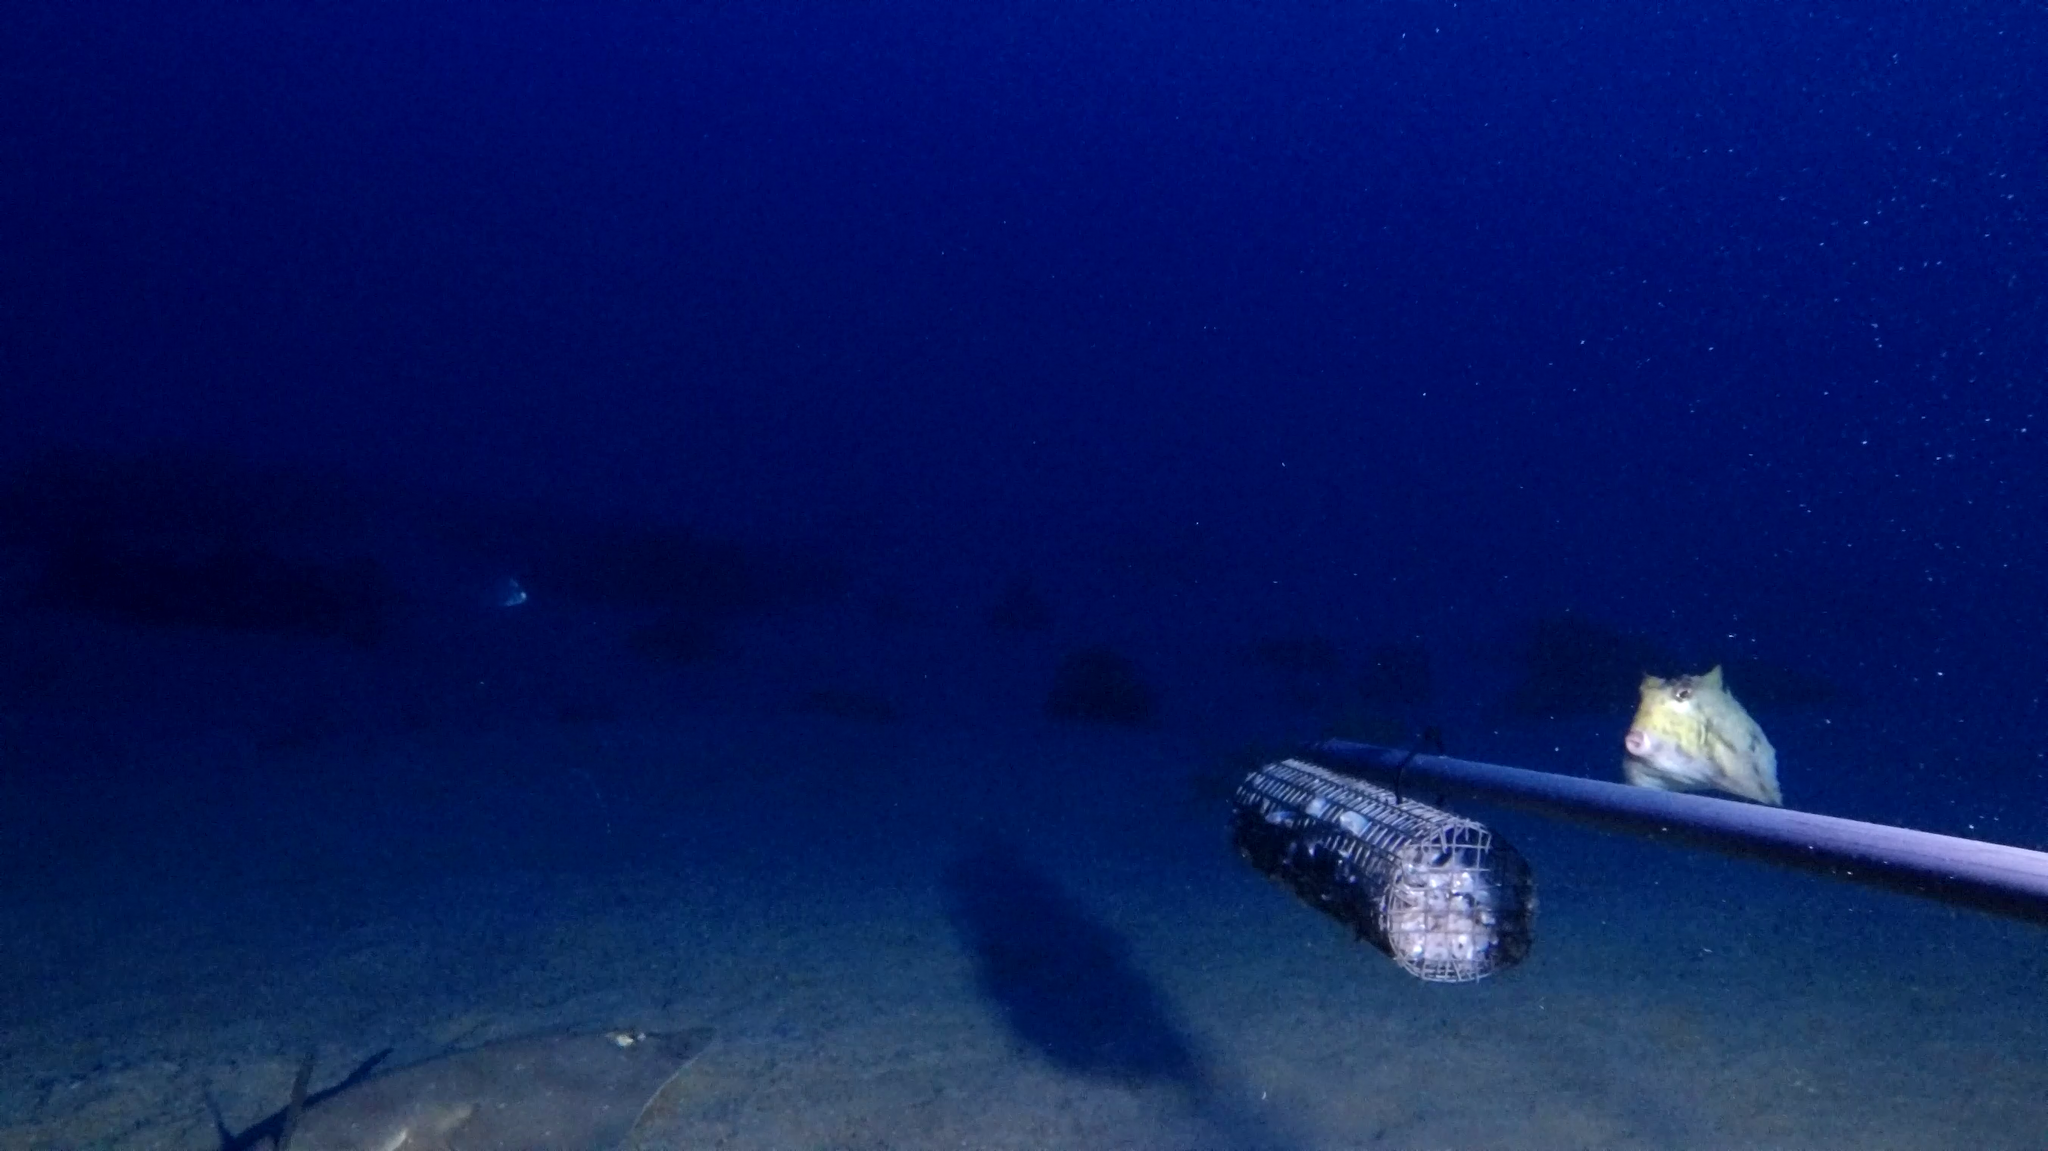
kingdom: Animalia
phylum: Chordata
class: Elasmobranchii
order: Rhinopristiformes
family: Rhinobatidae
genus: Rhinobatos
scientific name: Rhinobatos punctifer
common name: Spotted guitarfish
